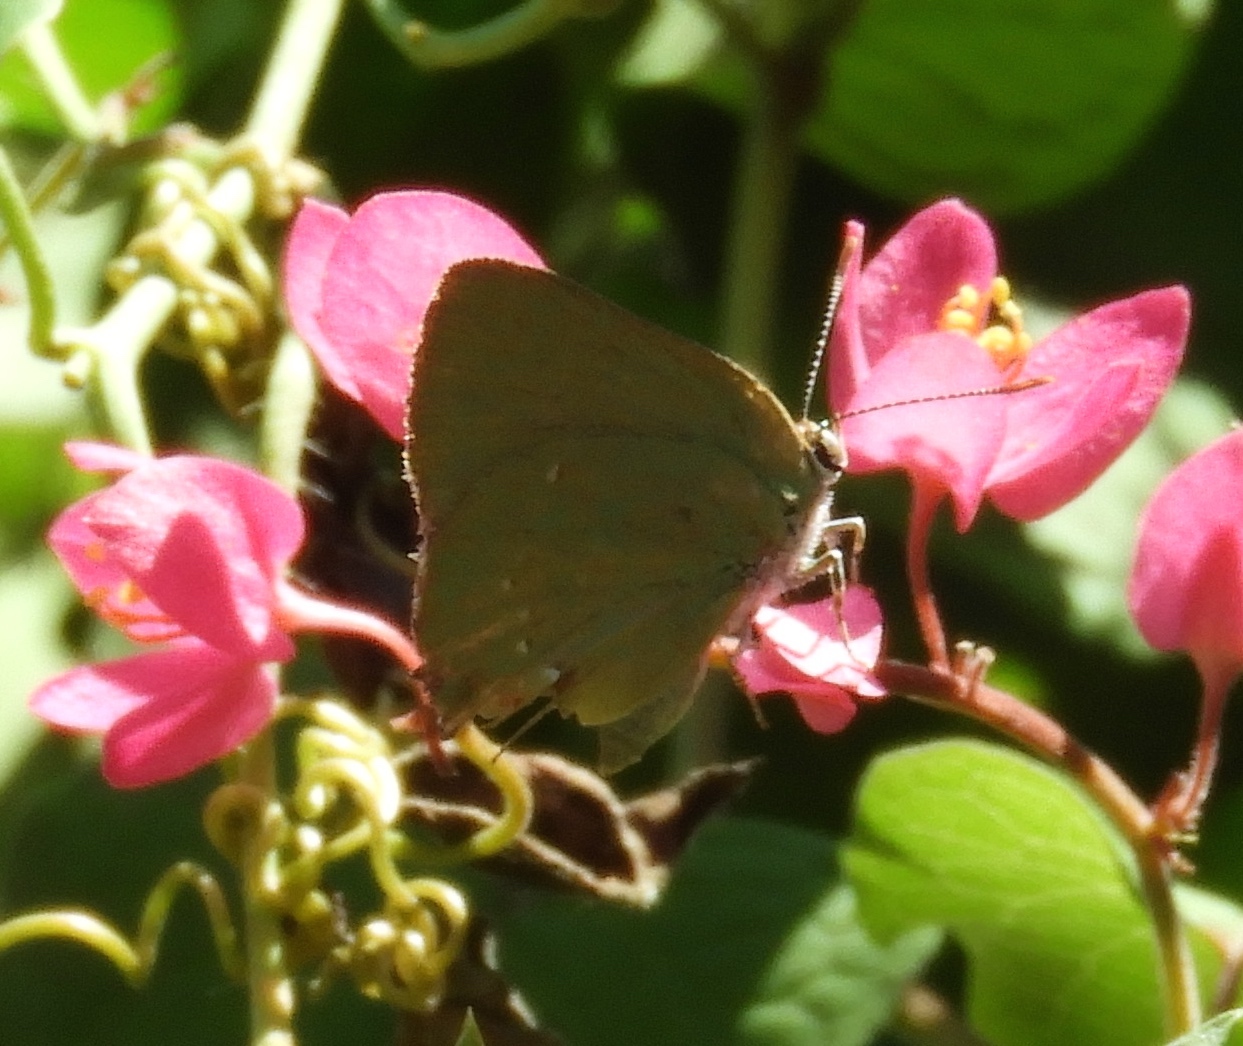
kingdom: Animalia
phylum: Arthropoda
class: Insecta
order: Lepidoptera
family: Lycaenidae
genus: Cyanophrys
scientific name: Cyanophrys
